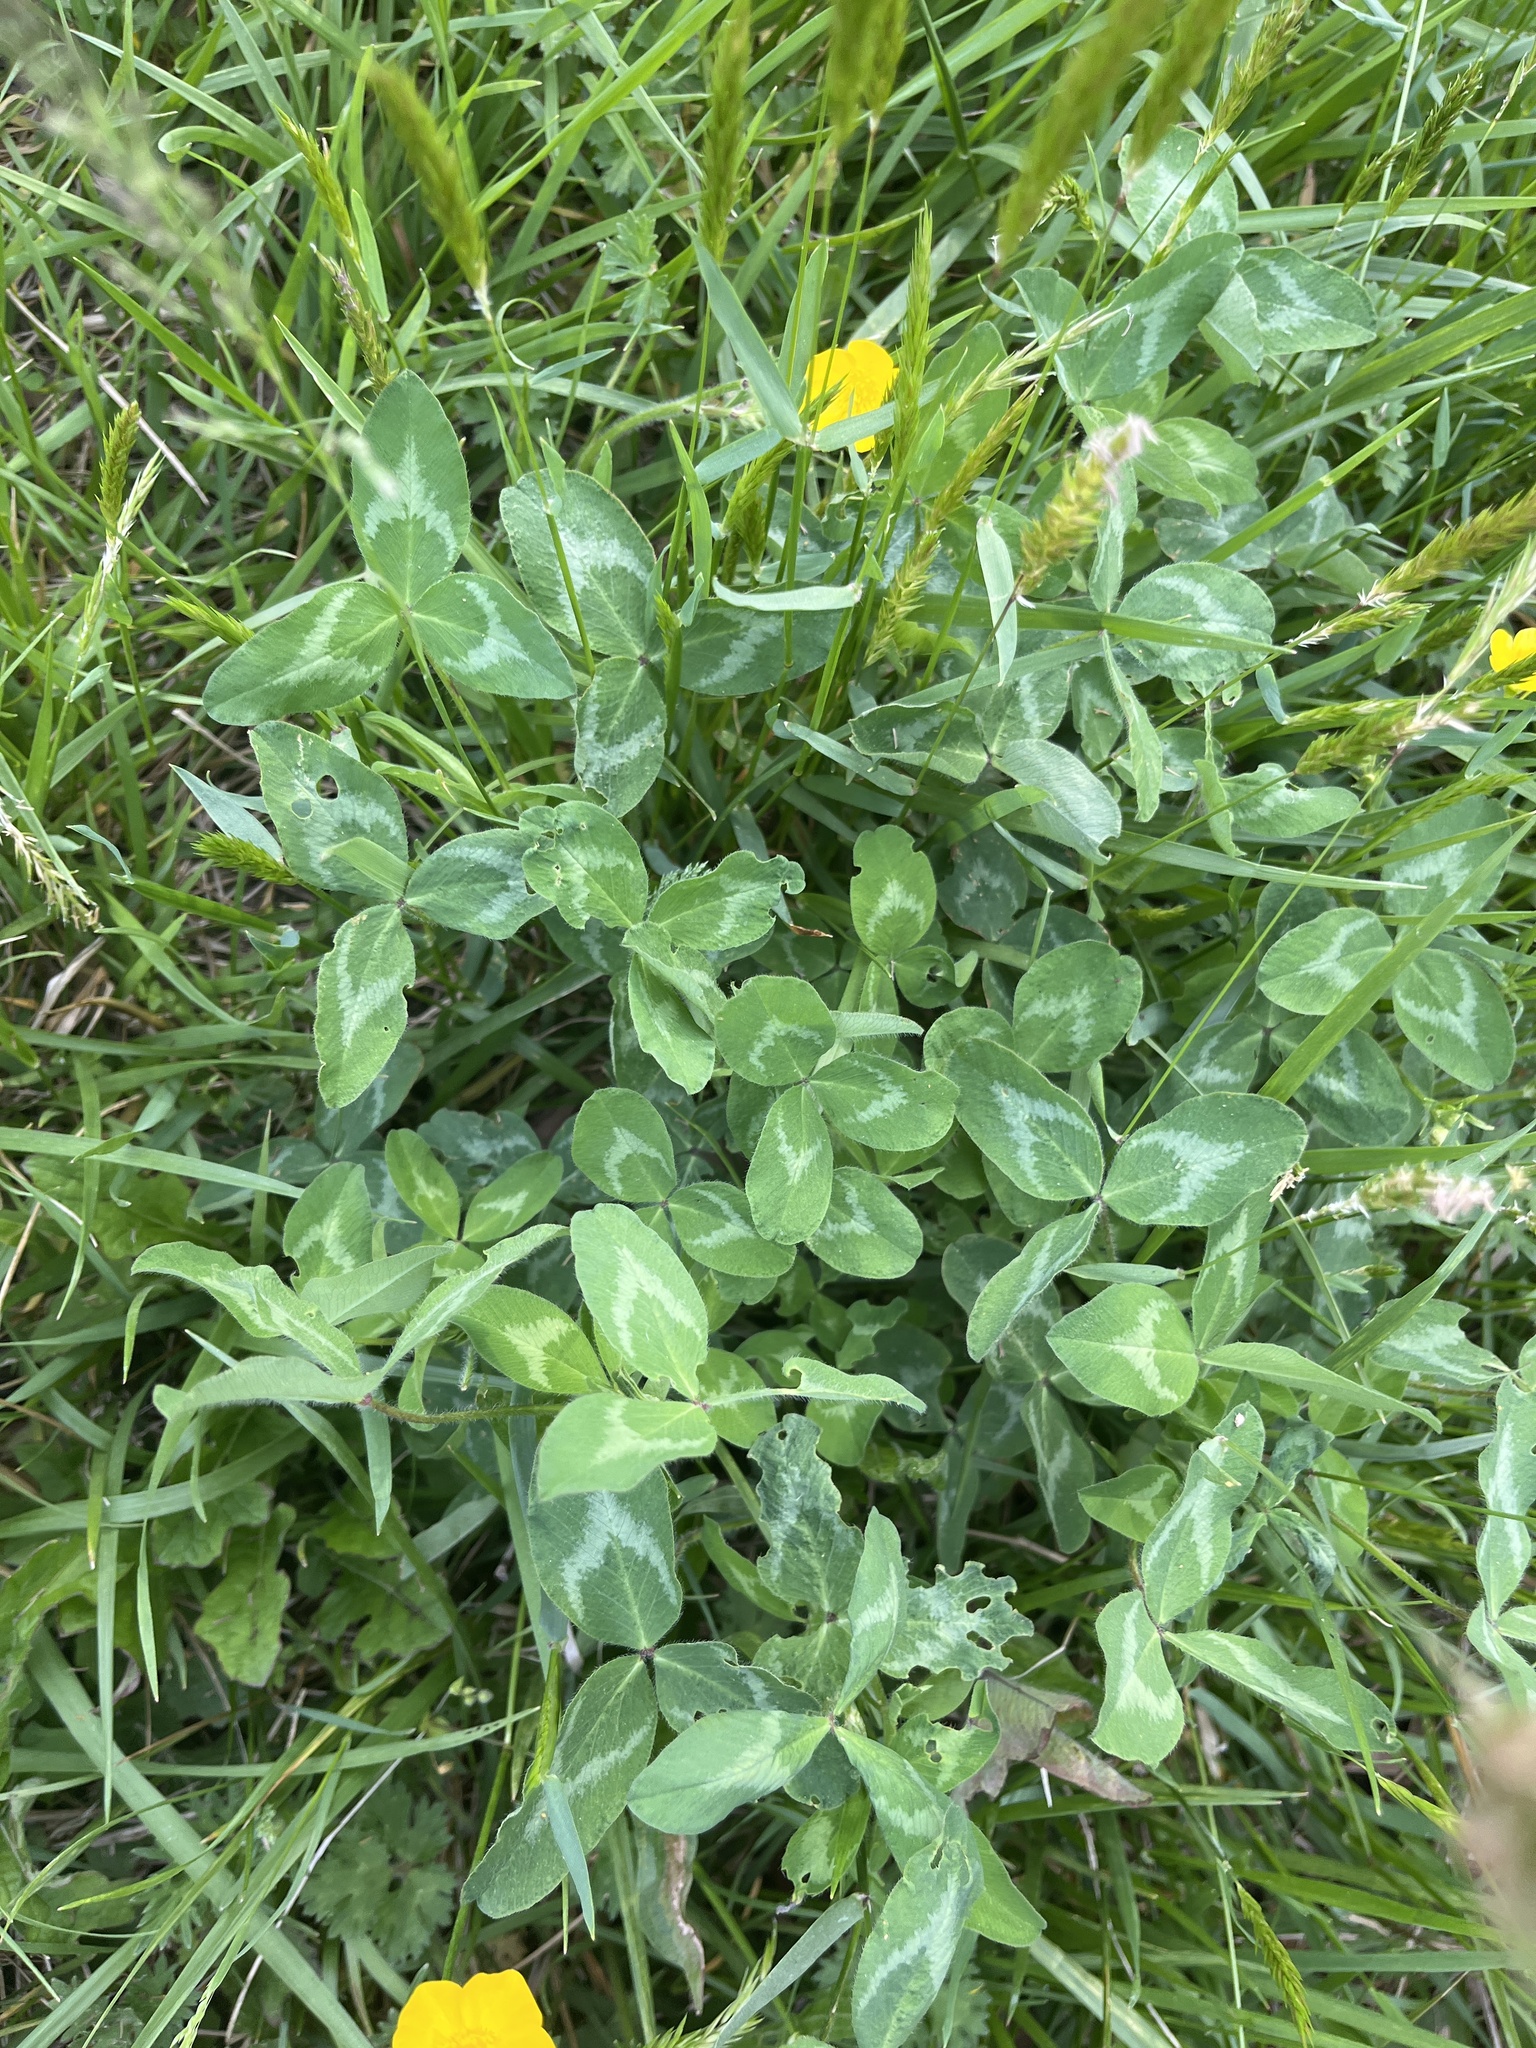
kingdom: Plantae
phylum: Tracheophyta
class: Magnoliopsida
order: Fabales
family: Fabaceae
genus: Trifolium
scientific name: Trifolium pratense
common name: Red clover
